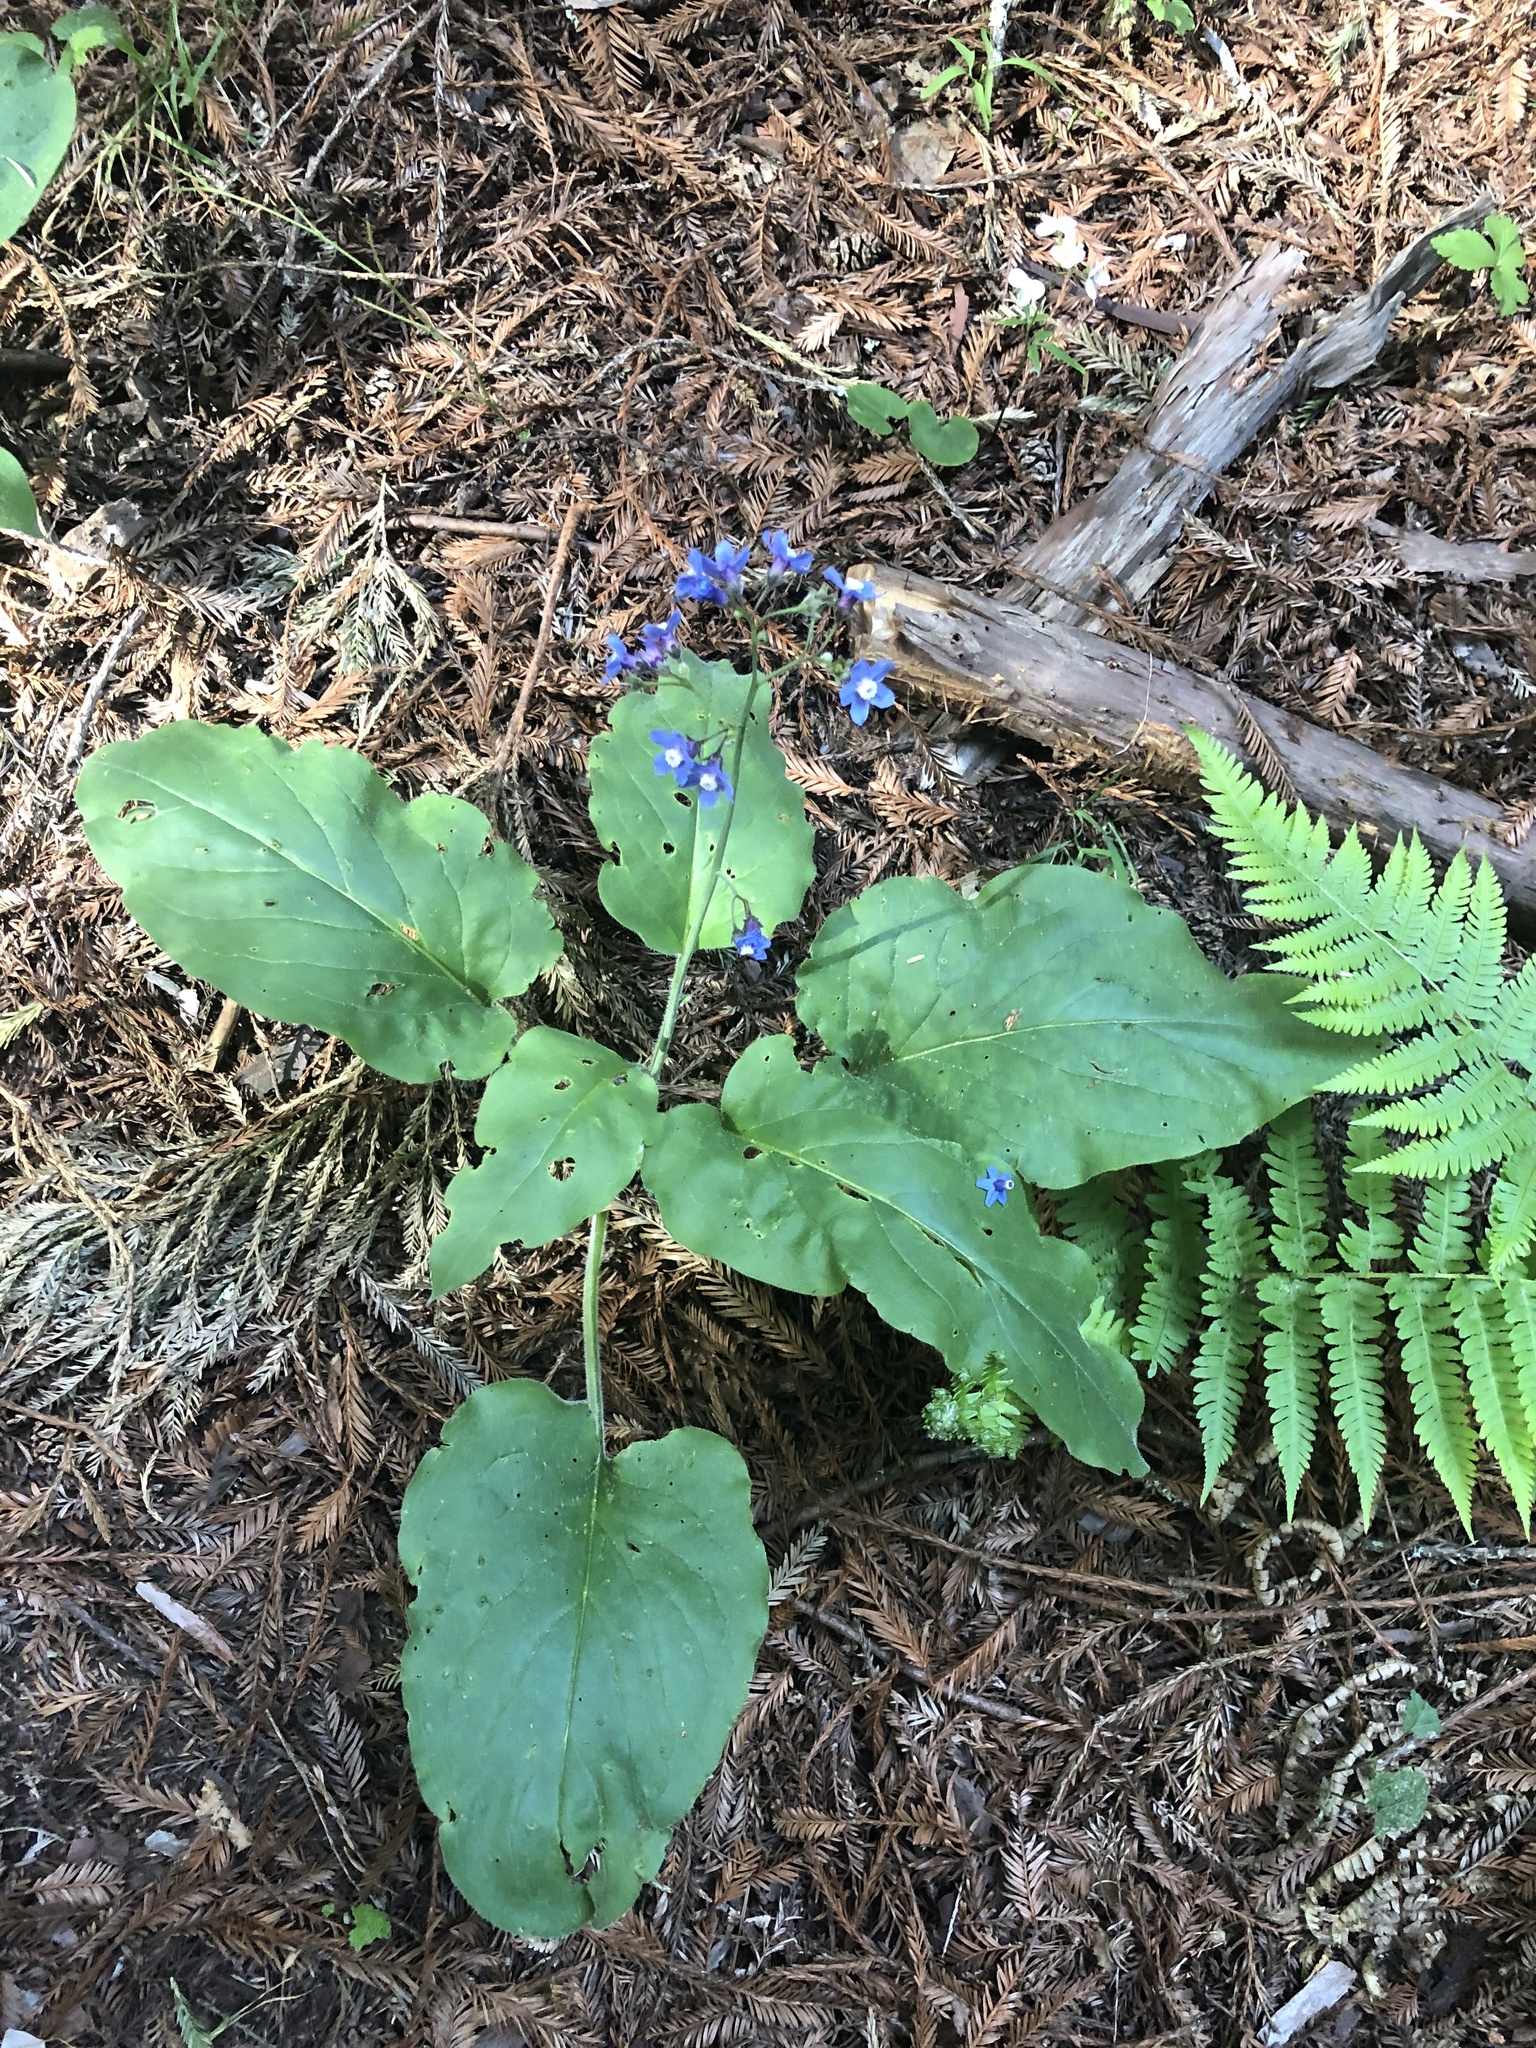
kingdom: Plantae
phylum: Tracheophyta
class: Magnoliopsida
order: Boraginales
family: Boraginaceae
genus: Adelinia
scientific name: Adelinia grande
